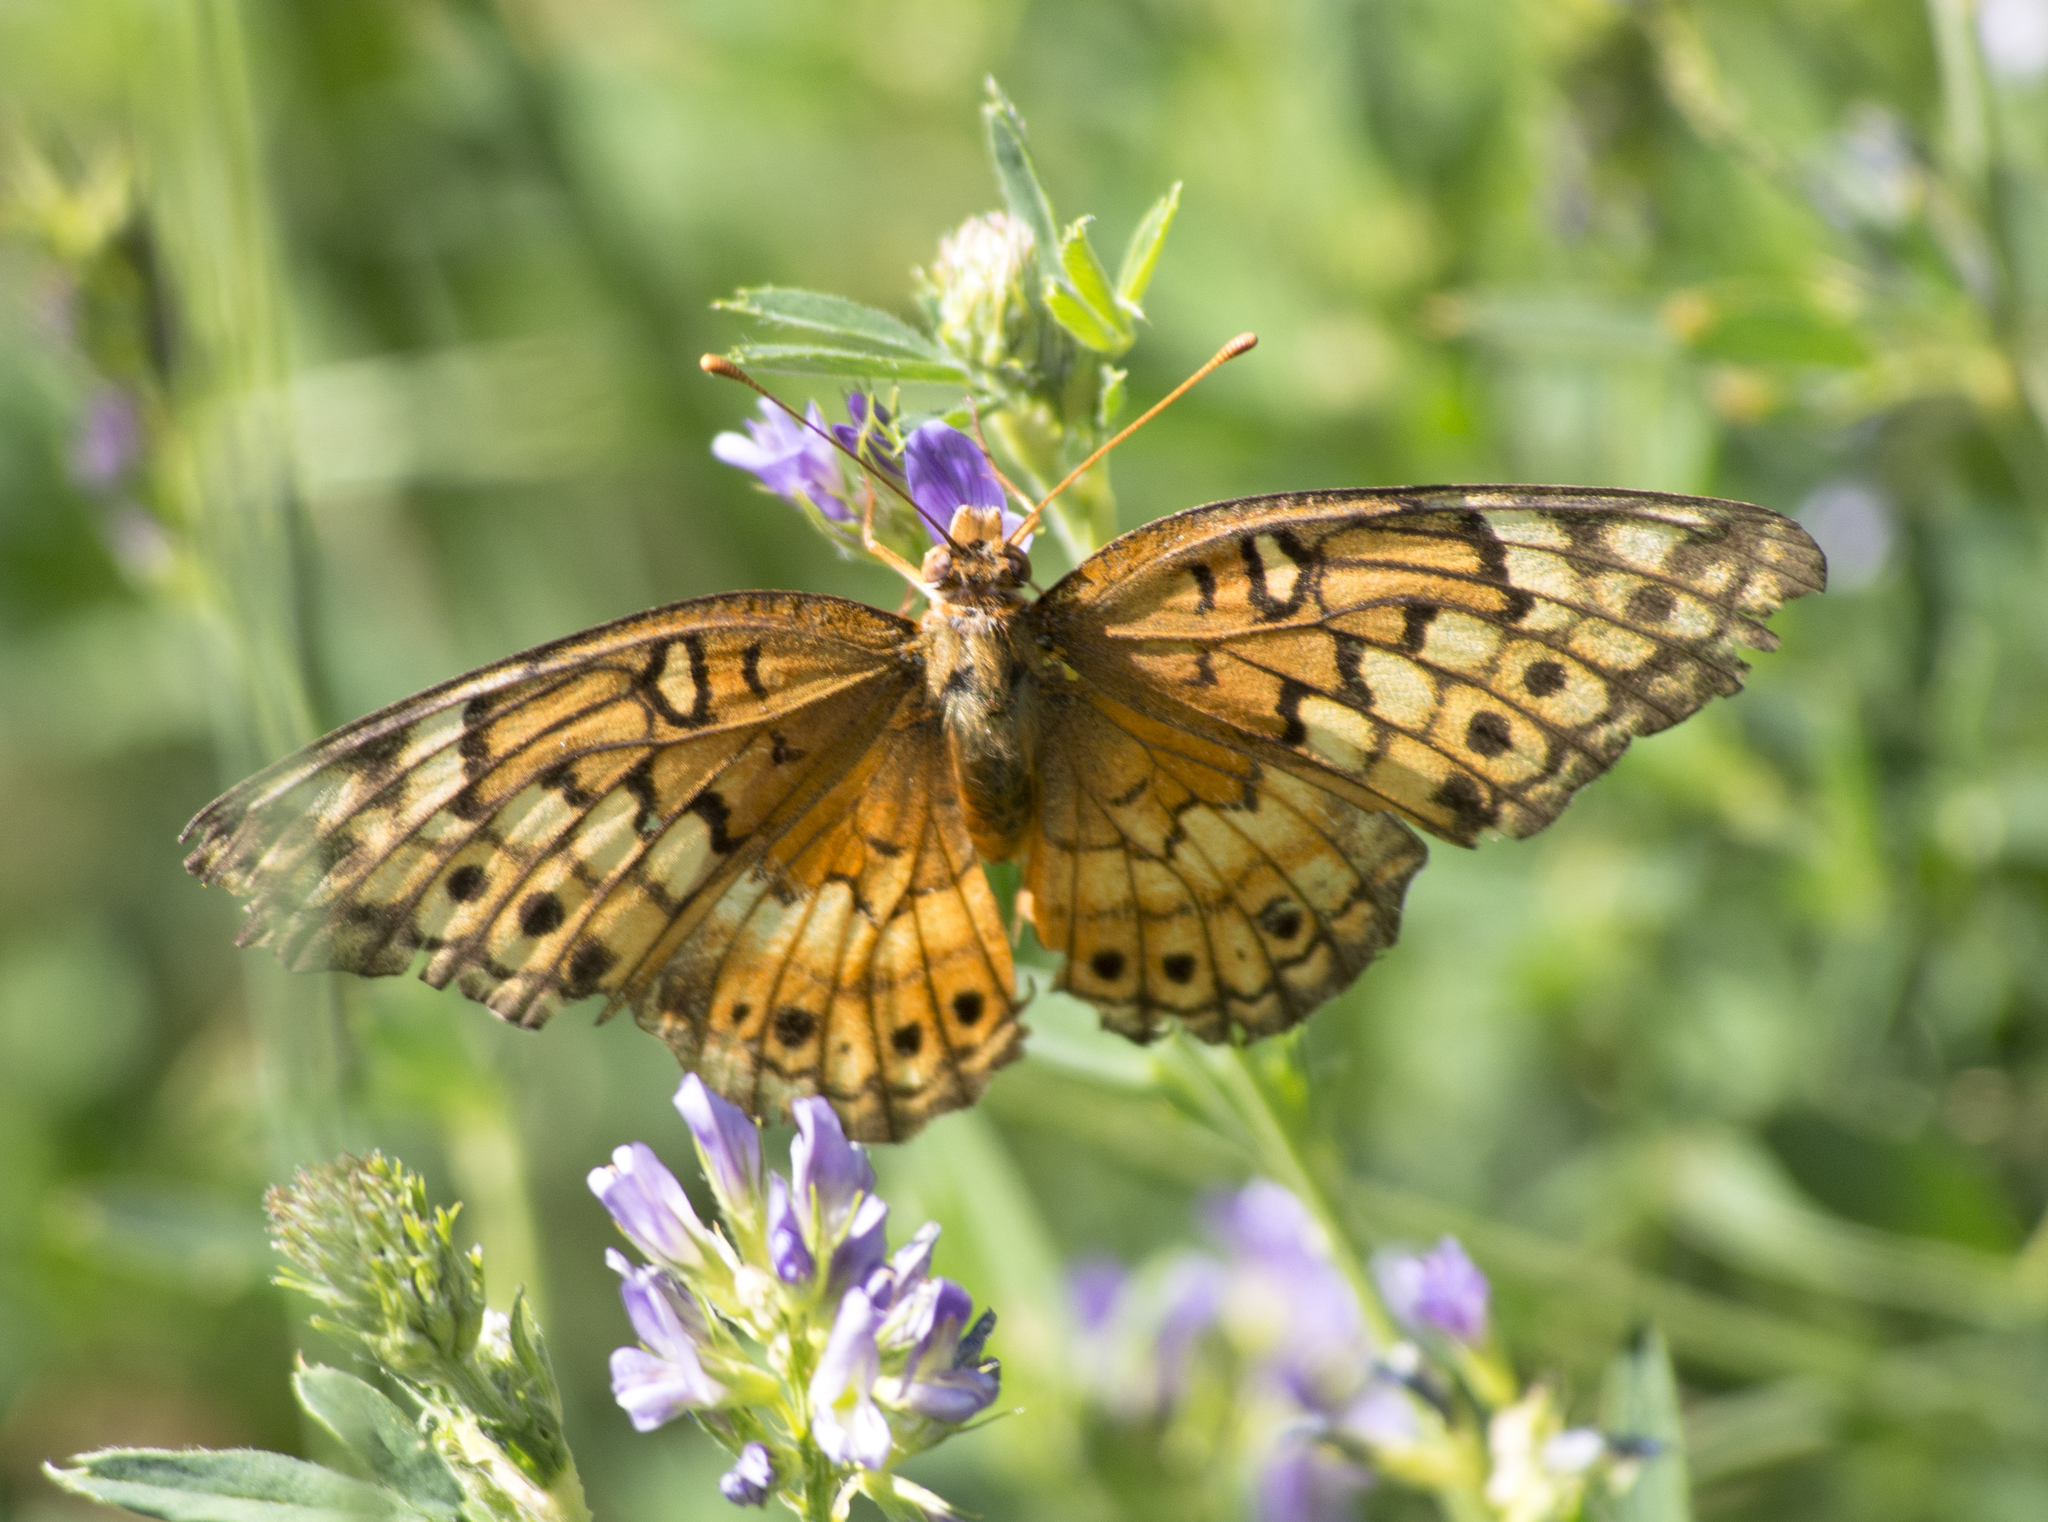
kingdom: Animalia
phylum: Arthropoda
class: Insecta
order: Lepidoptera
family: Nymphalidae
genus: Euptoieta
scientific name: Euptoieta claudia
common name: Variegated fritillary
